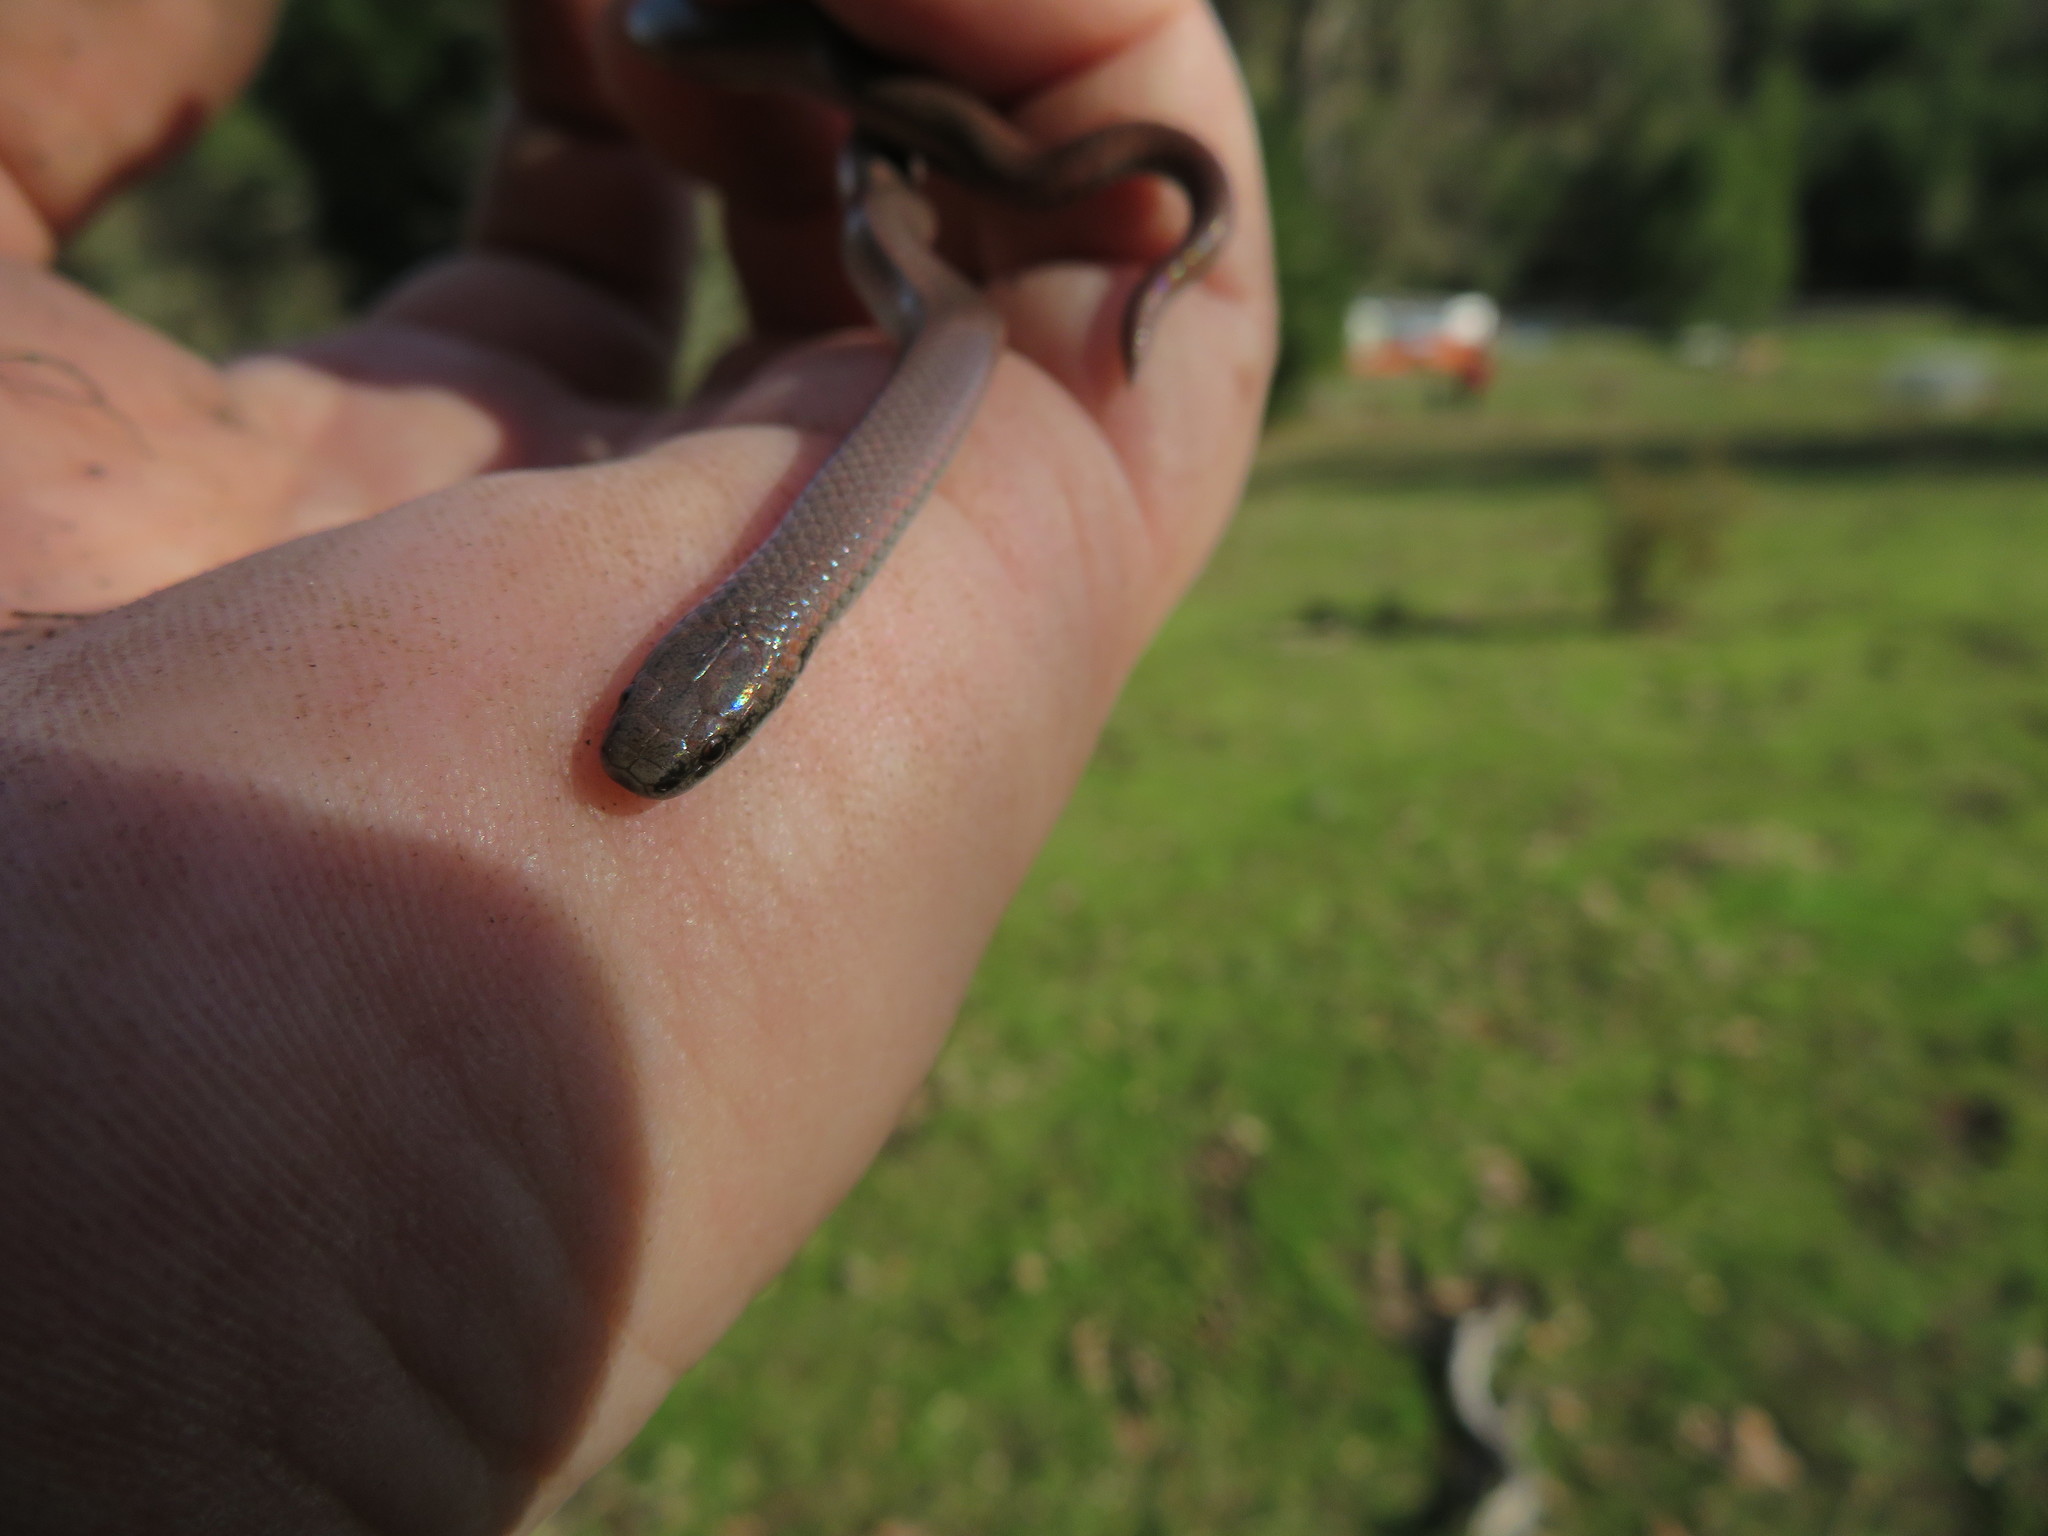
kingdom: Animalia
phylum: Chordata
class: Squamata
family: Colubridae
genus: Contia
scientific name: Contia tenuis
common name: Sharptail snake
